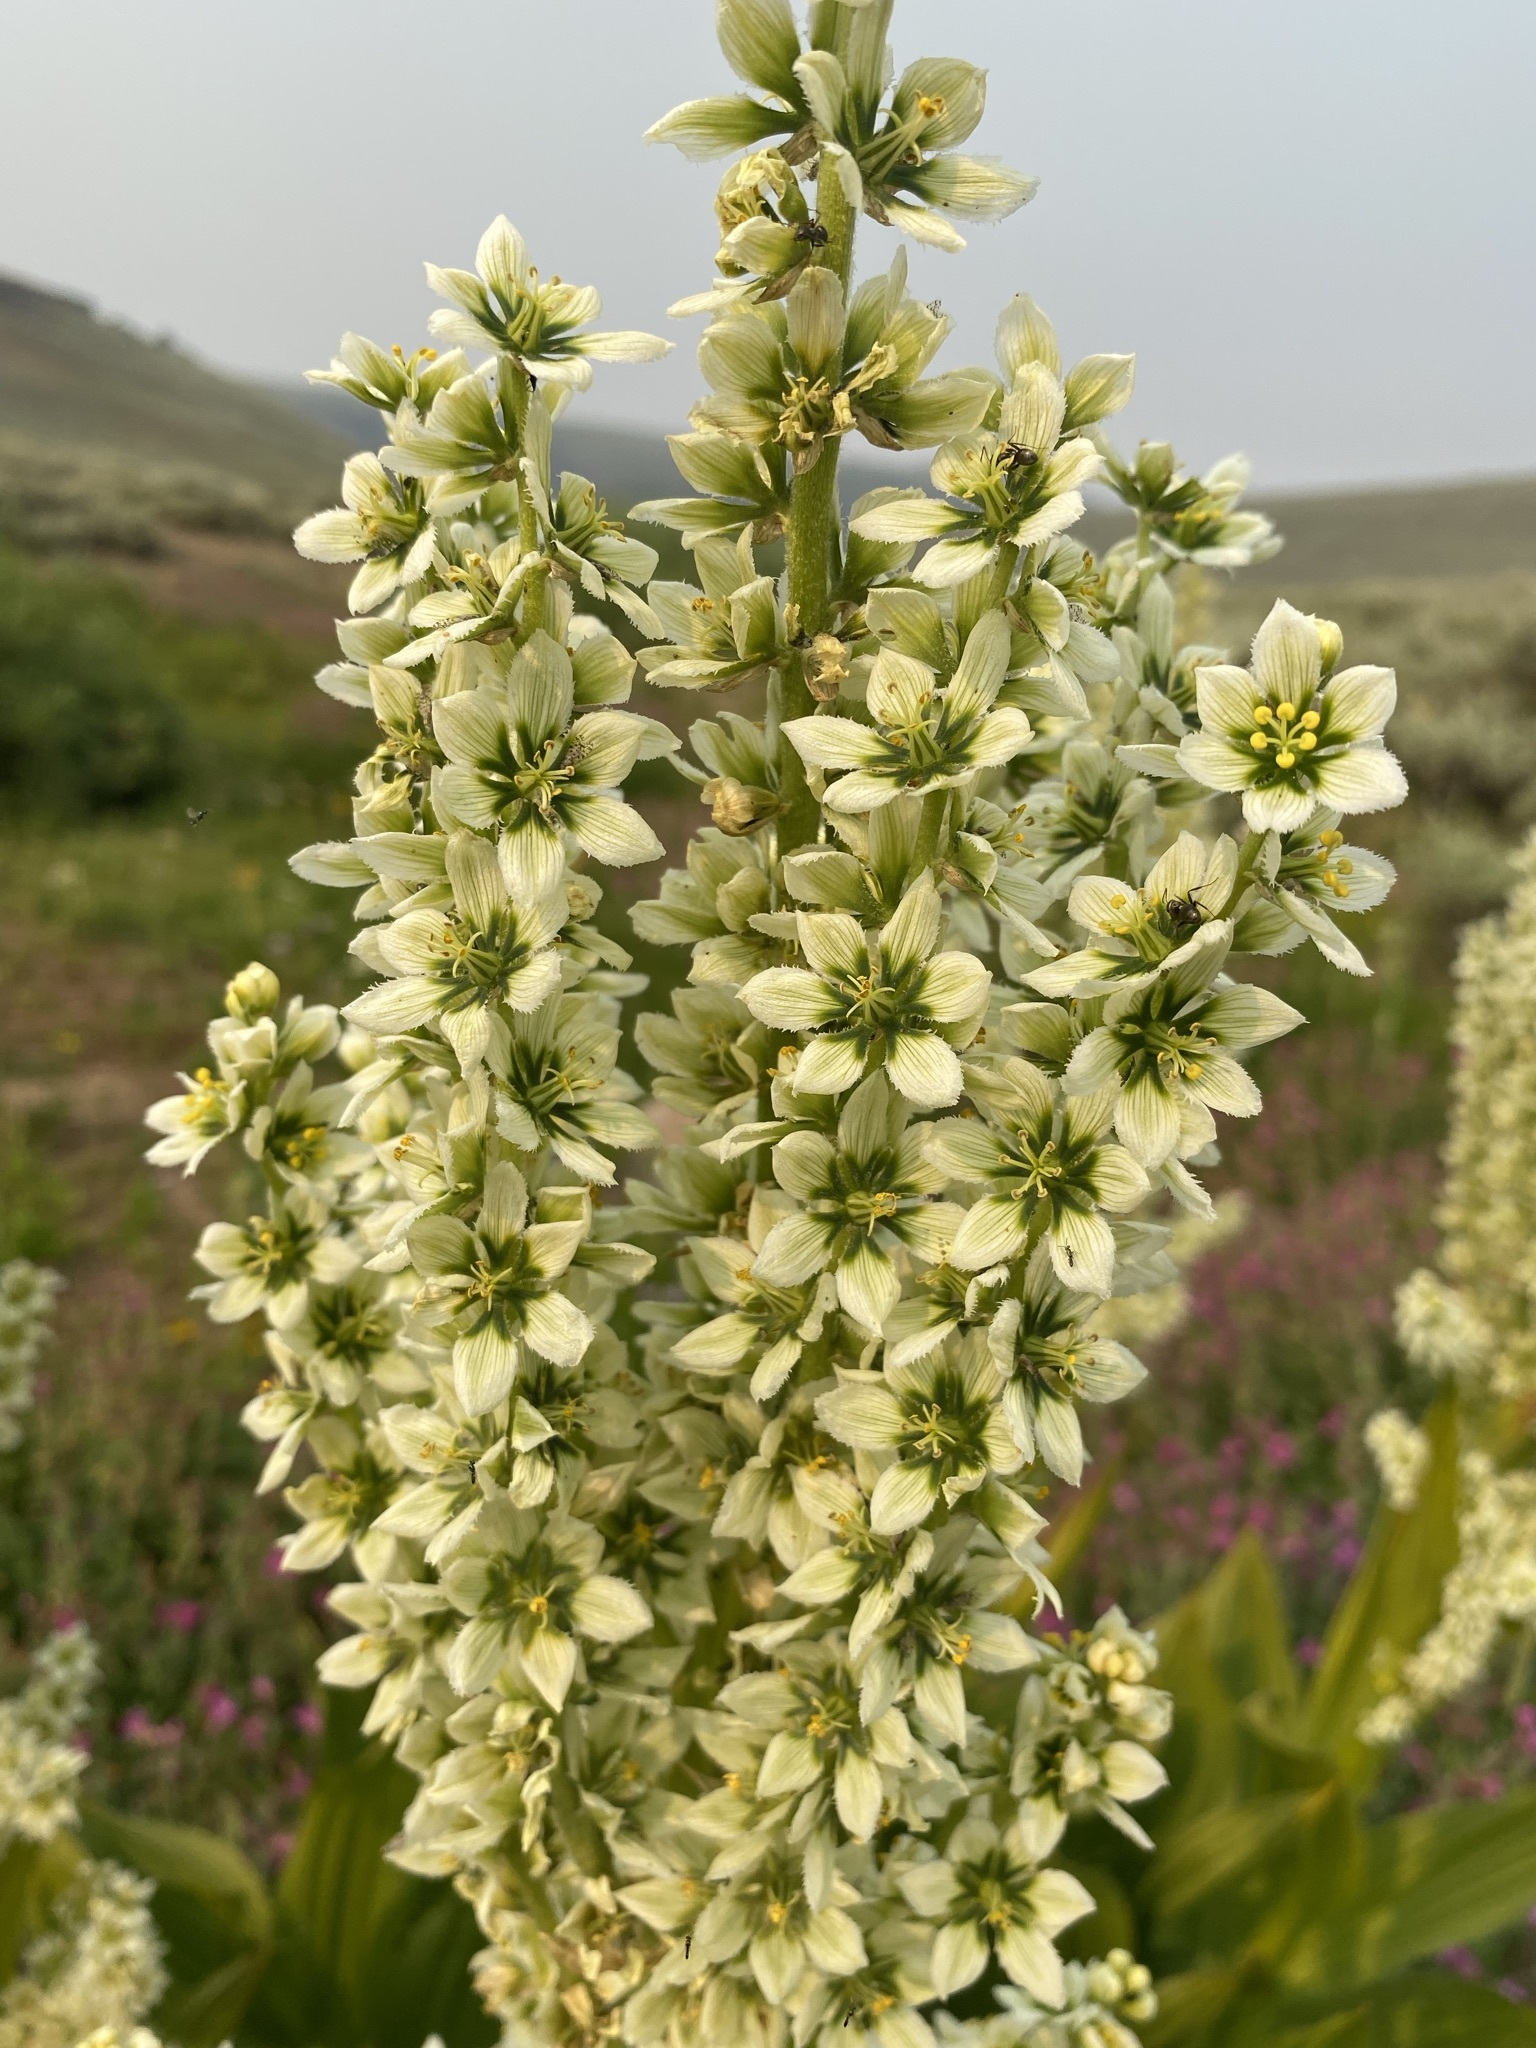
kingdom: Plantae
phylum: Tracheophyta
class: Liliopsida
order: Liliales
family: Melanthiaceae
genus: Veratrum
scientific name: Veratrum californicum
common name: California veratrum
